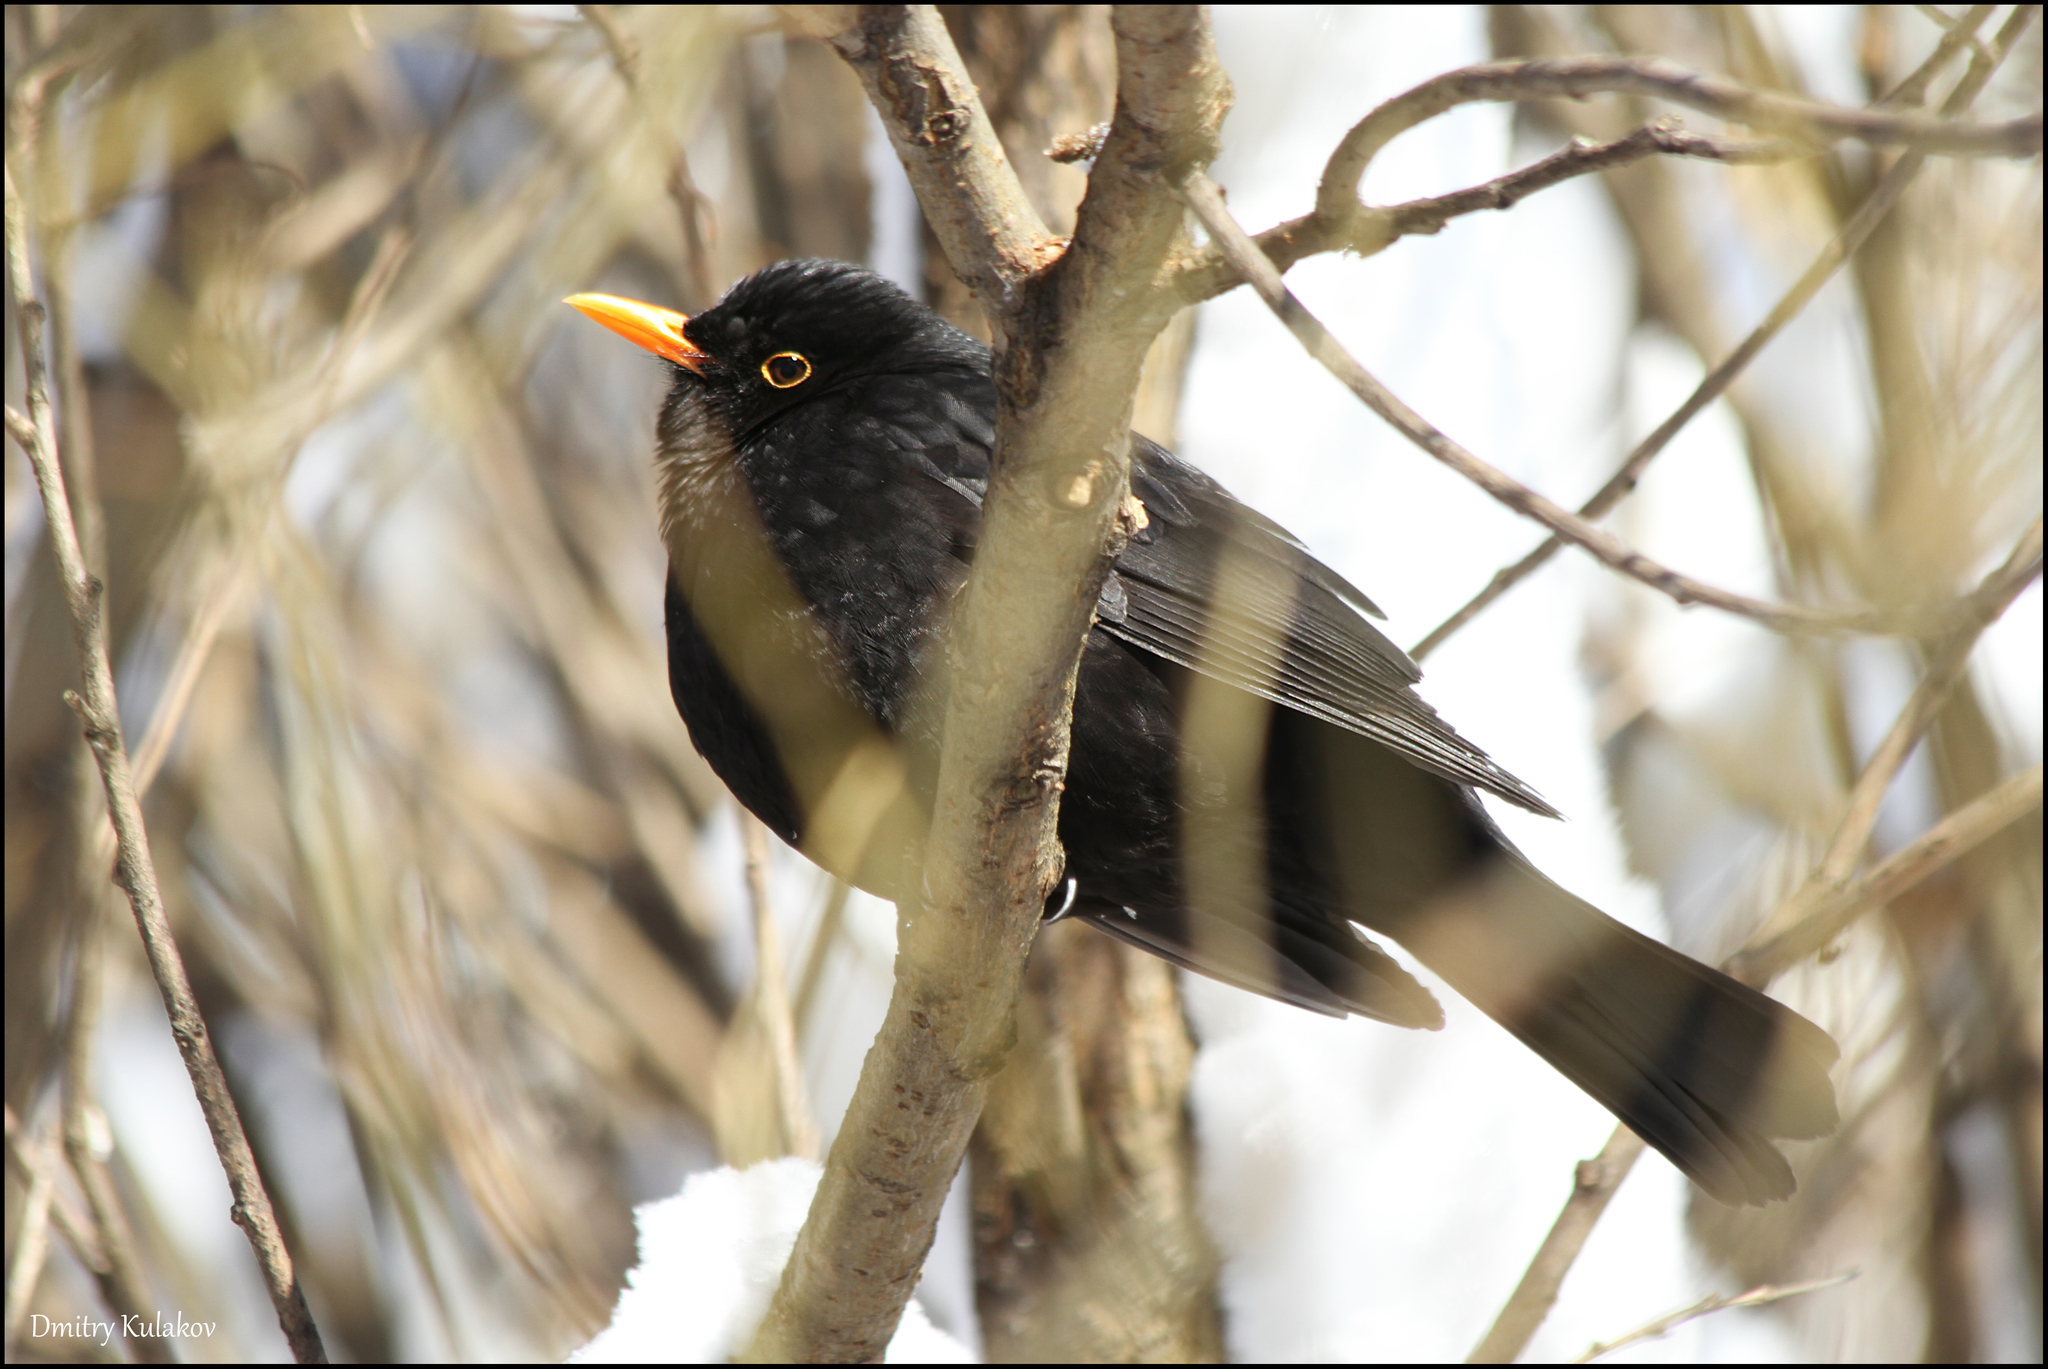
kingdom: Animalia
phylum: Chordata
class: Aves
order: Passeriformes
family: Turdidae
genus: Turdus
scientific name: Turdus merula
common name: Common blackbird
